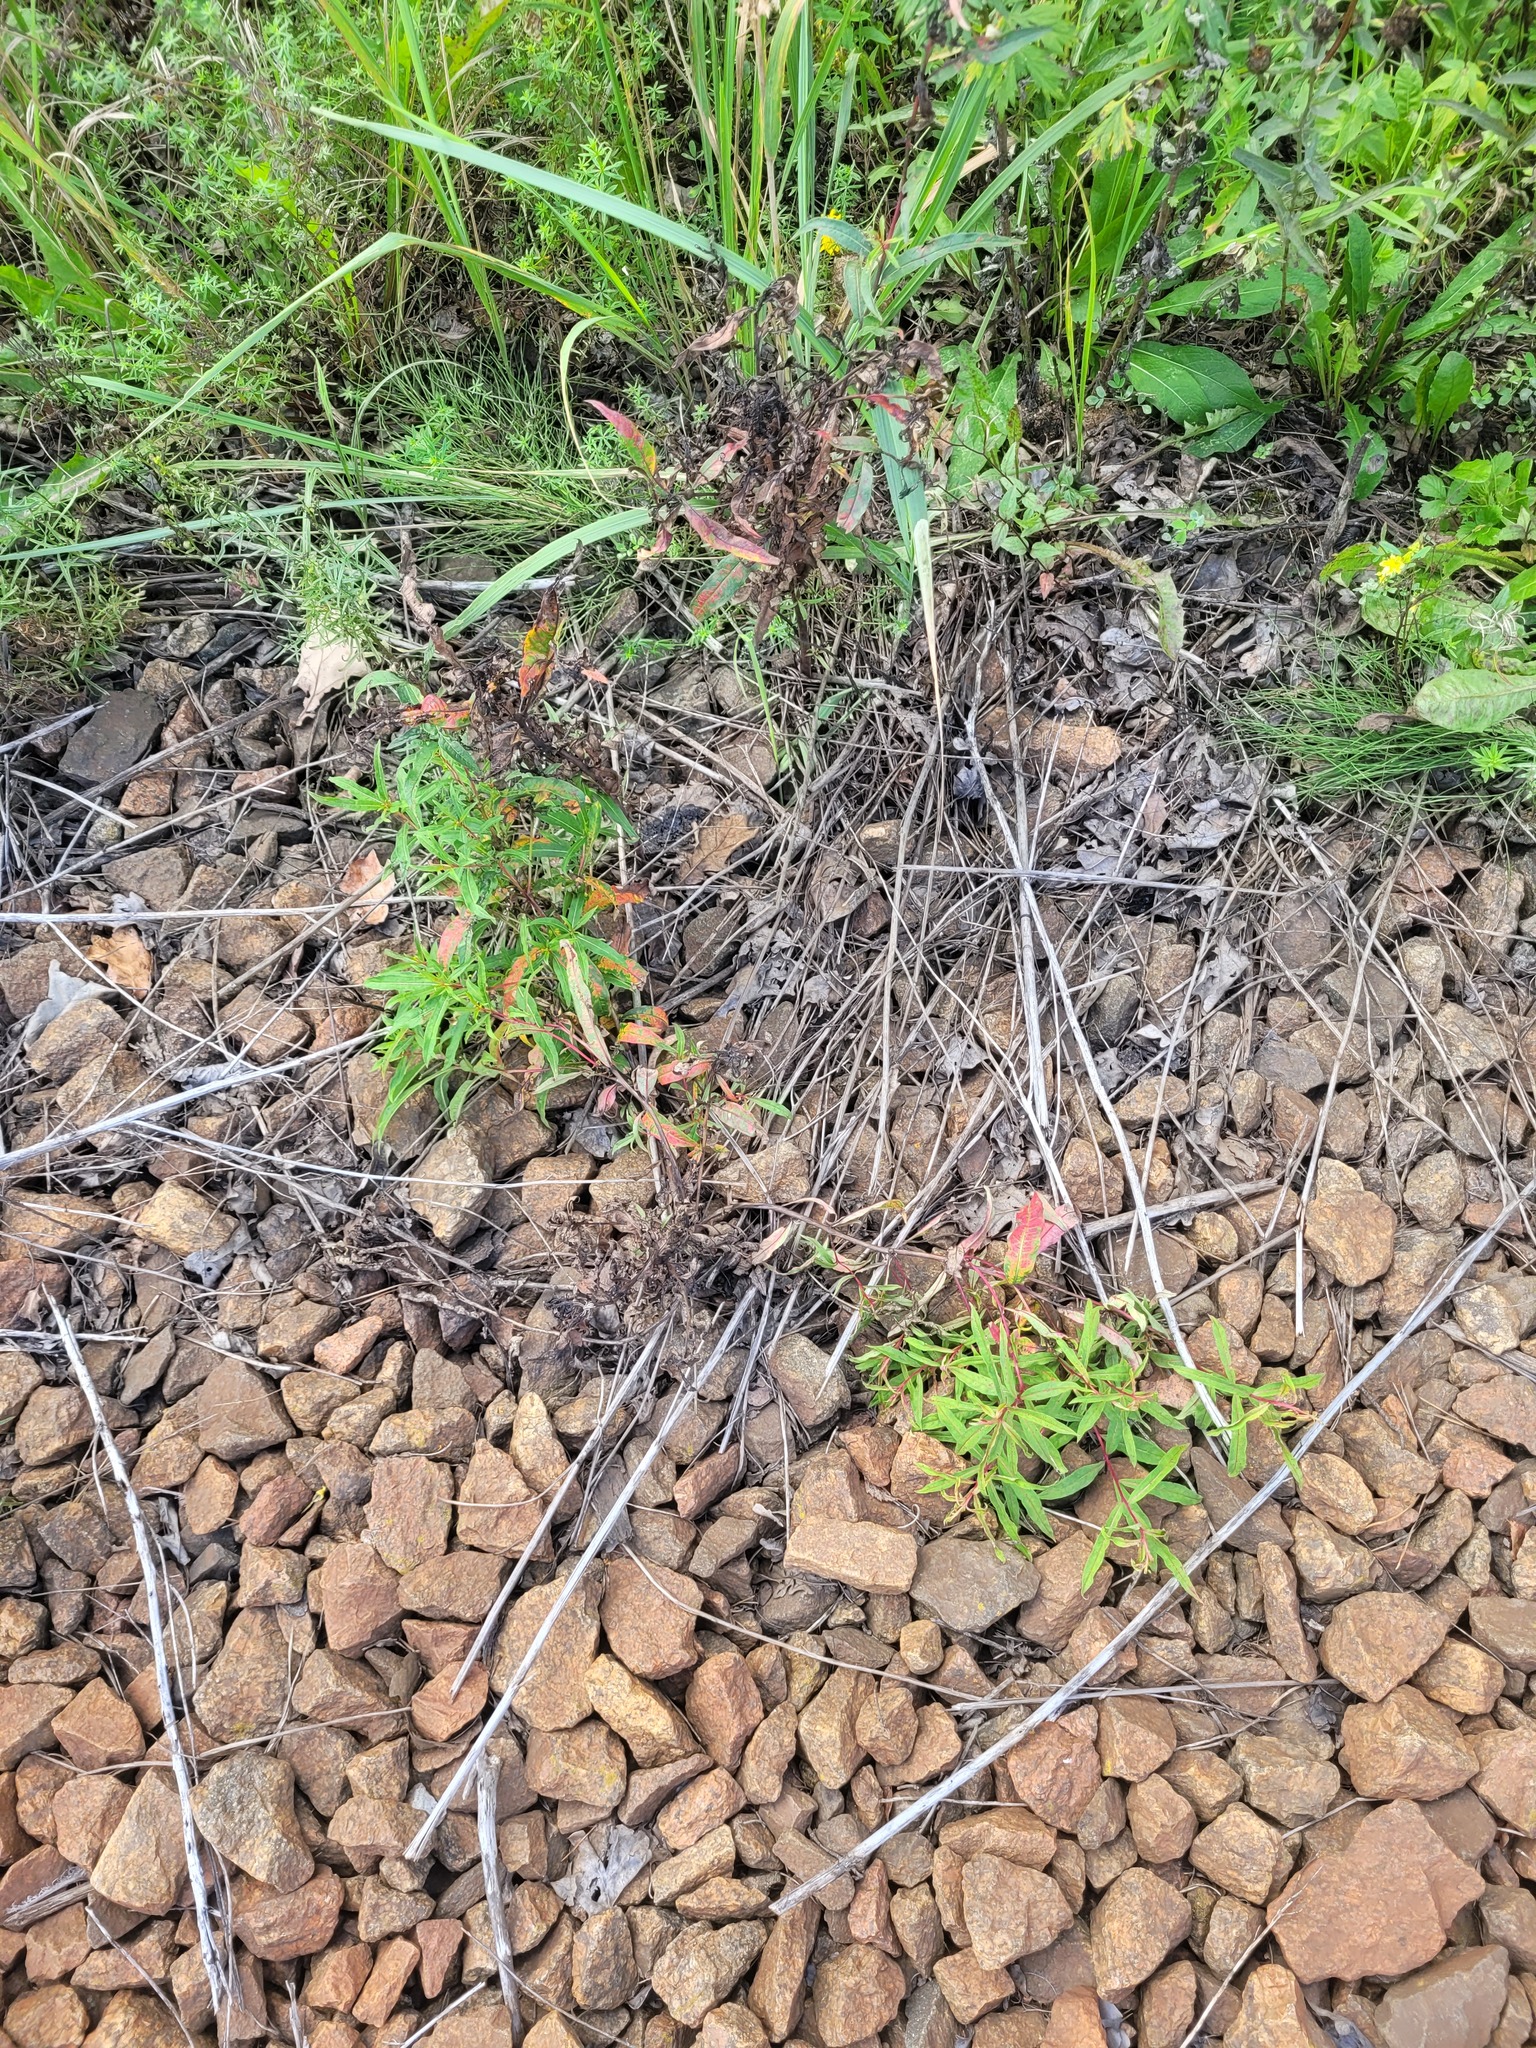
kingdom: Plantae
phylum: Tracheophyta
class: Magnoliopsida
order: Myrtales
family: Onagraceae
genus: Chamaenerion
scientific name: Chamaenerion angustifolium
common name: Fireweed
